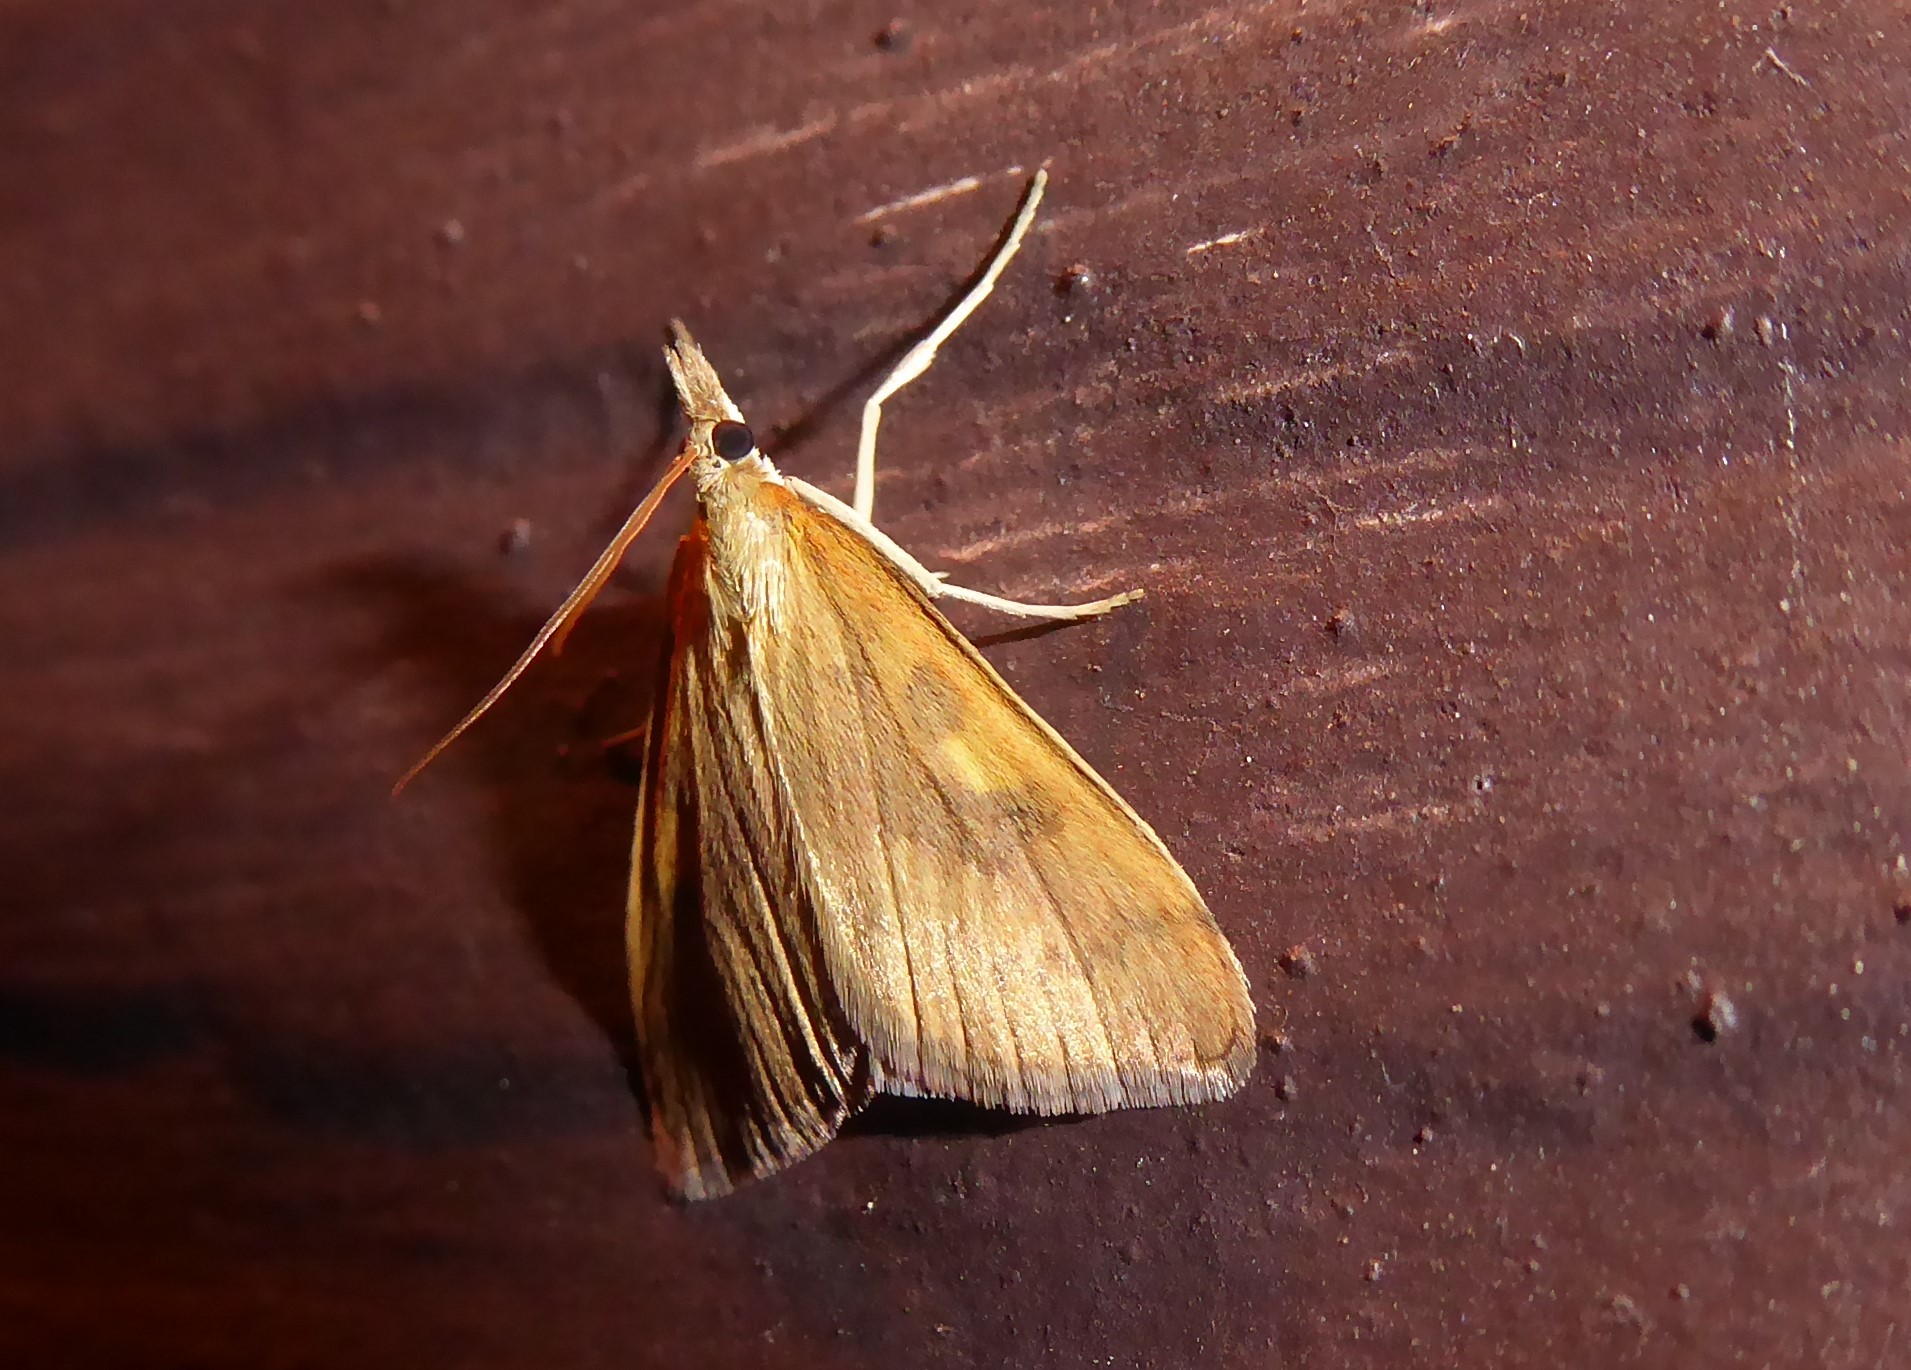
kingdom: Animalia
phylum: Arthropoda
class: Insecta
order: Lepidoptera
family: Crambidae
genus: Udea
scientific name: Udea Mnesictena flavidalis
